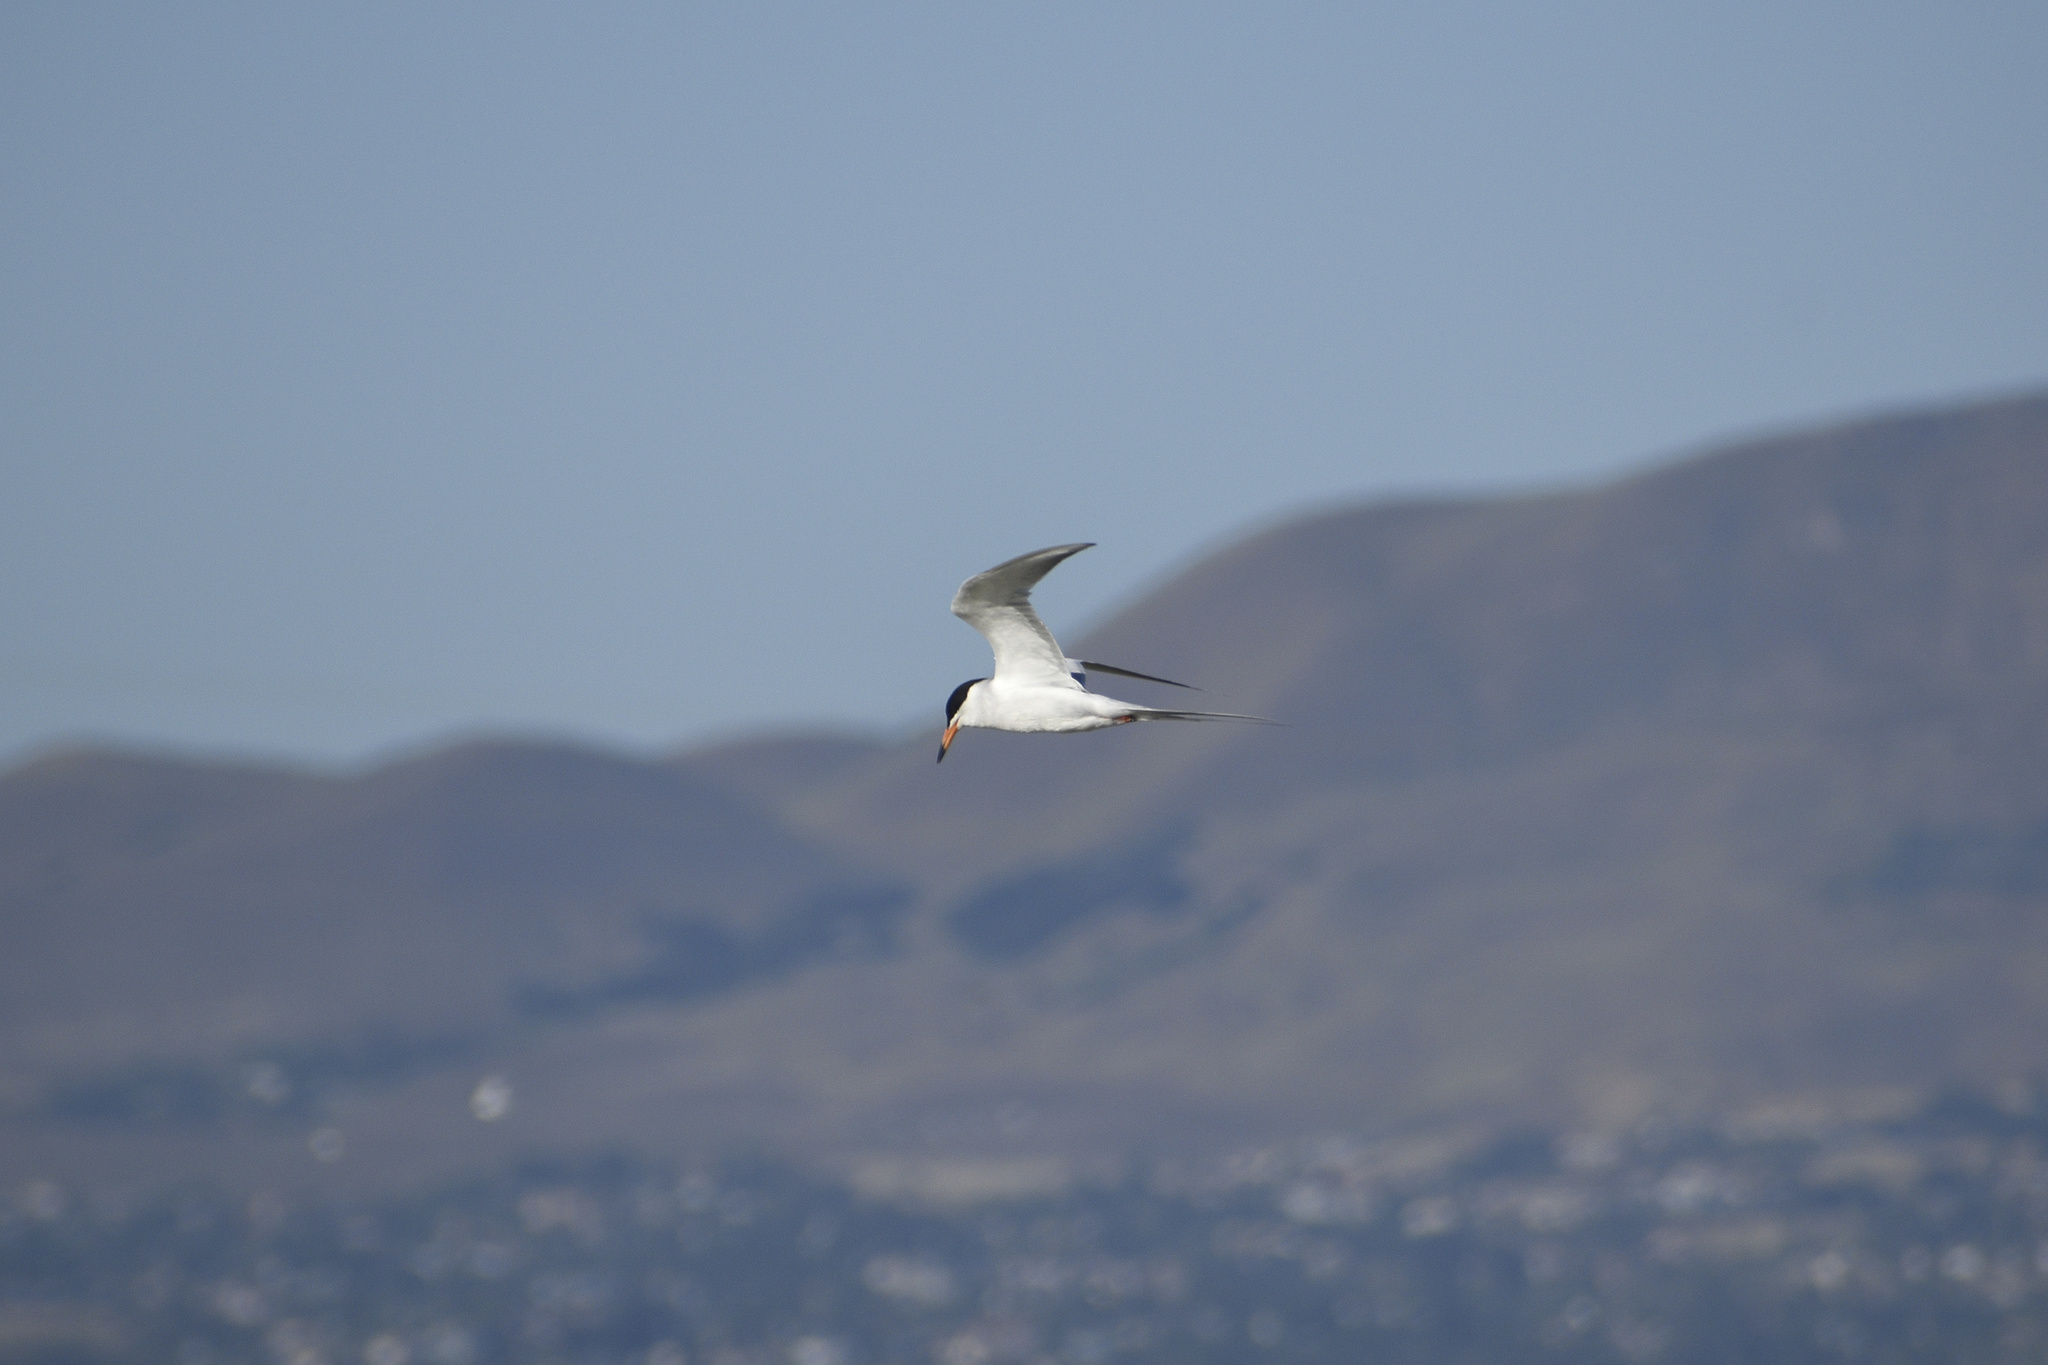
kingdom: Animalia
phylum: Chordata
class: Aves
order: Charadriiformes
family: Laridae
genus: Sterna
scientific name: Sterna forsteri
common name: Forster's tern
